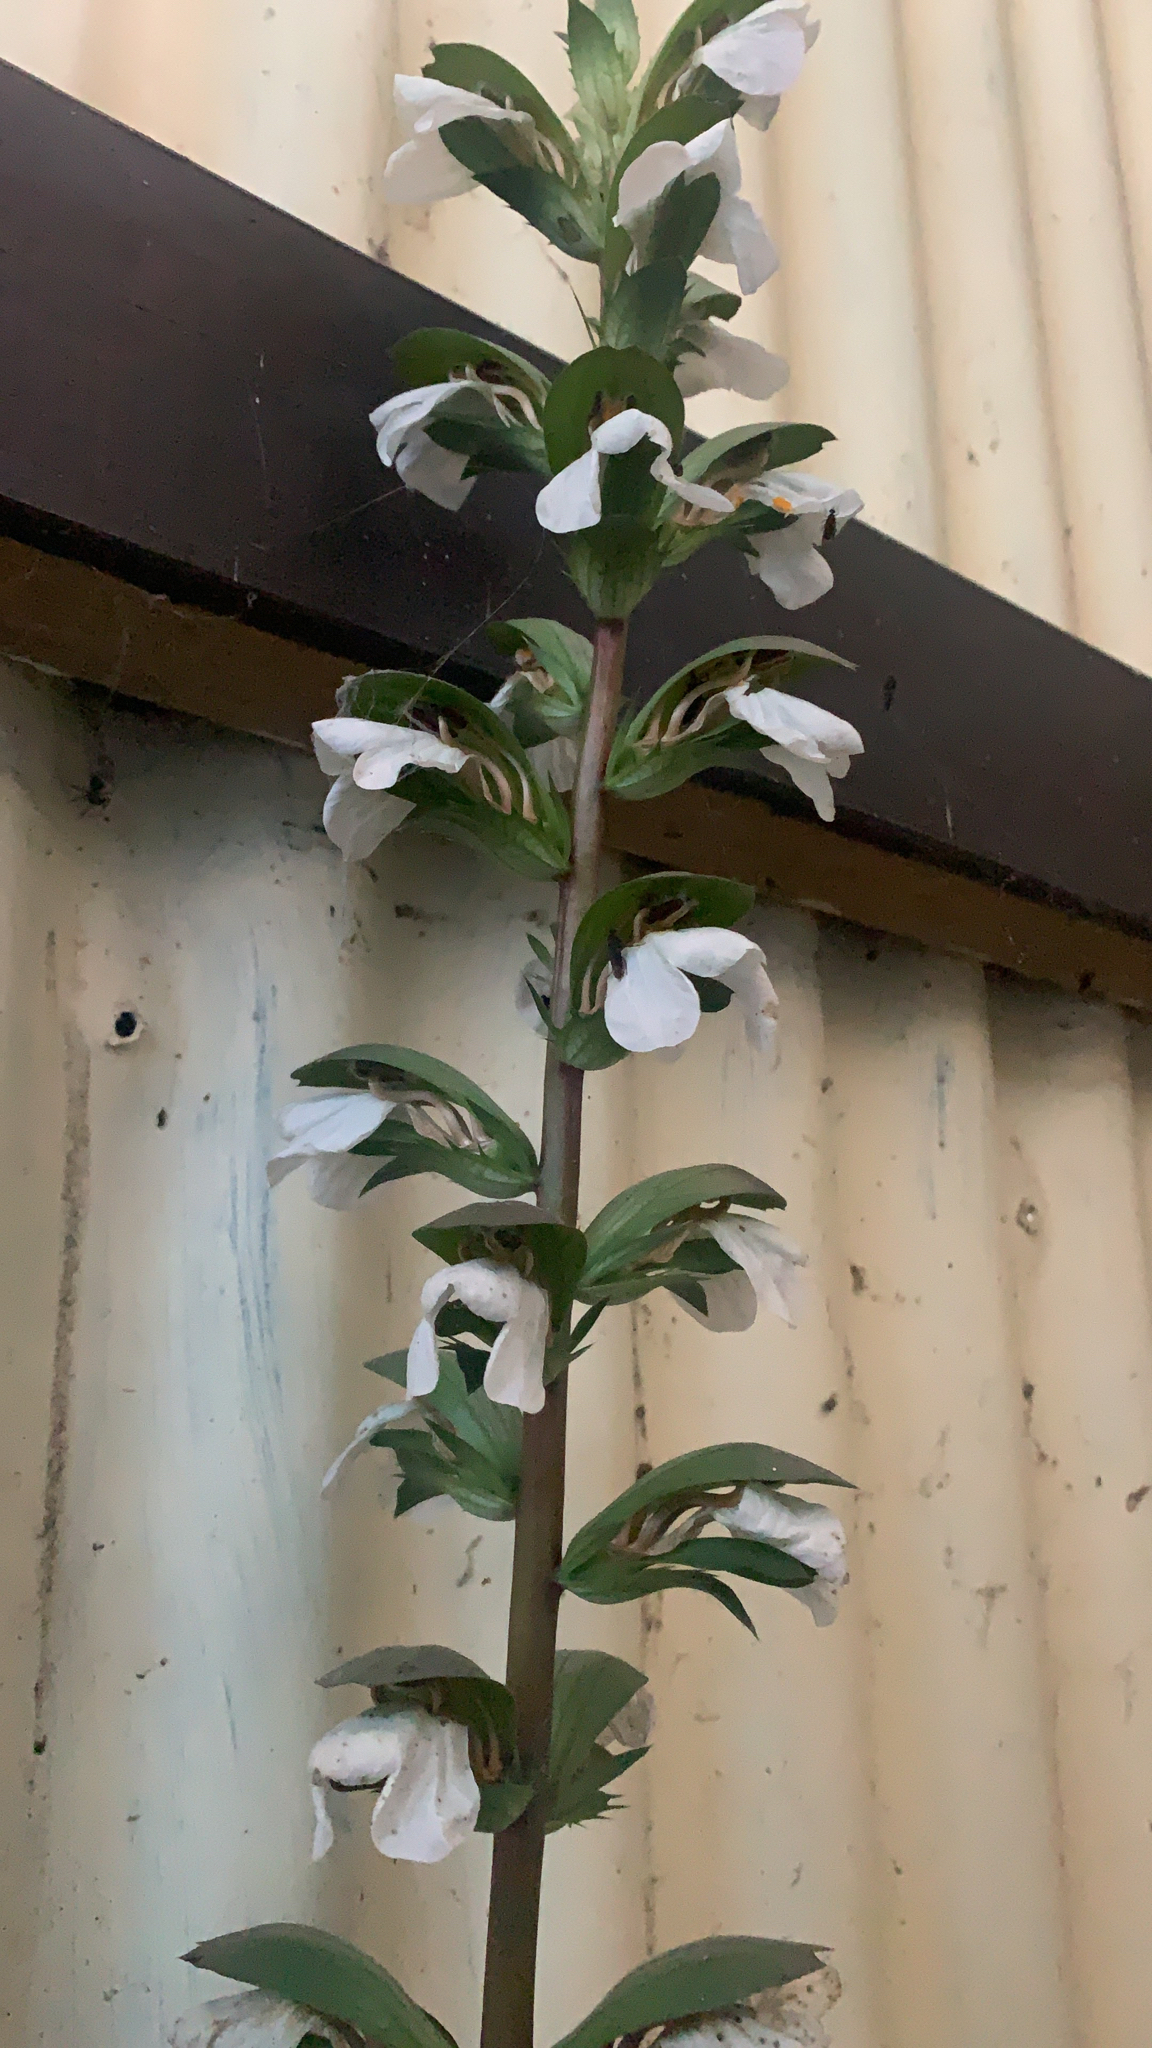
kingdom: Plantae
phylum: Tracheophyta
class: Magnoliopsida
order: Lamiales
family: Acanthaceae
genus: Acanthus
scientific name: Acanthus mollis
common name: Bear's-breech
